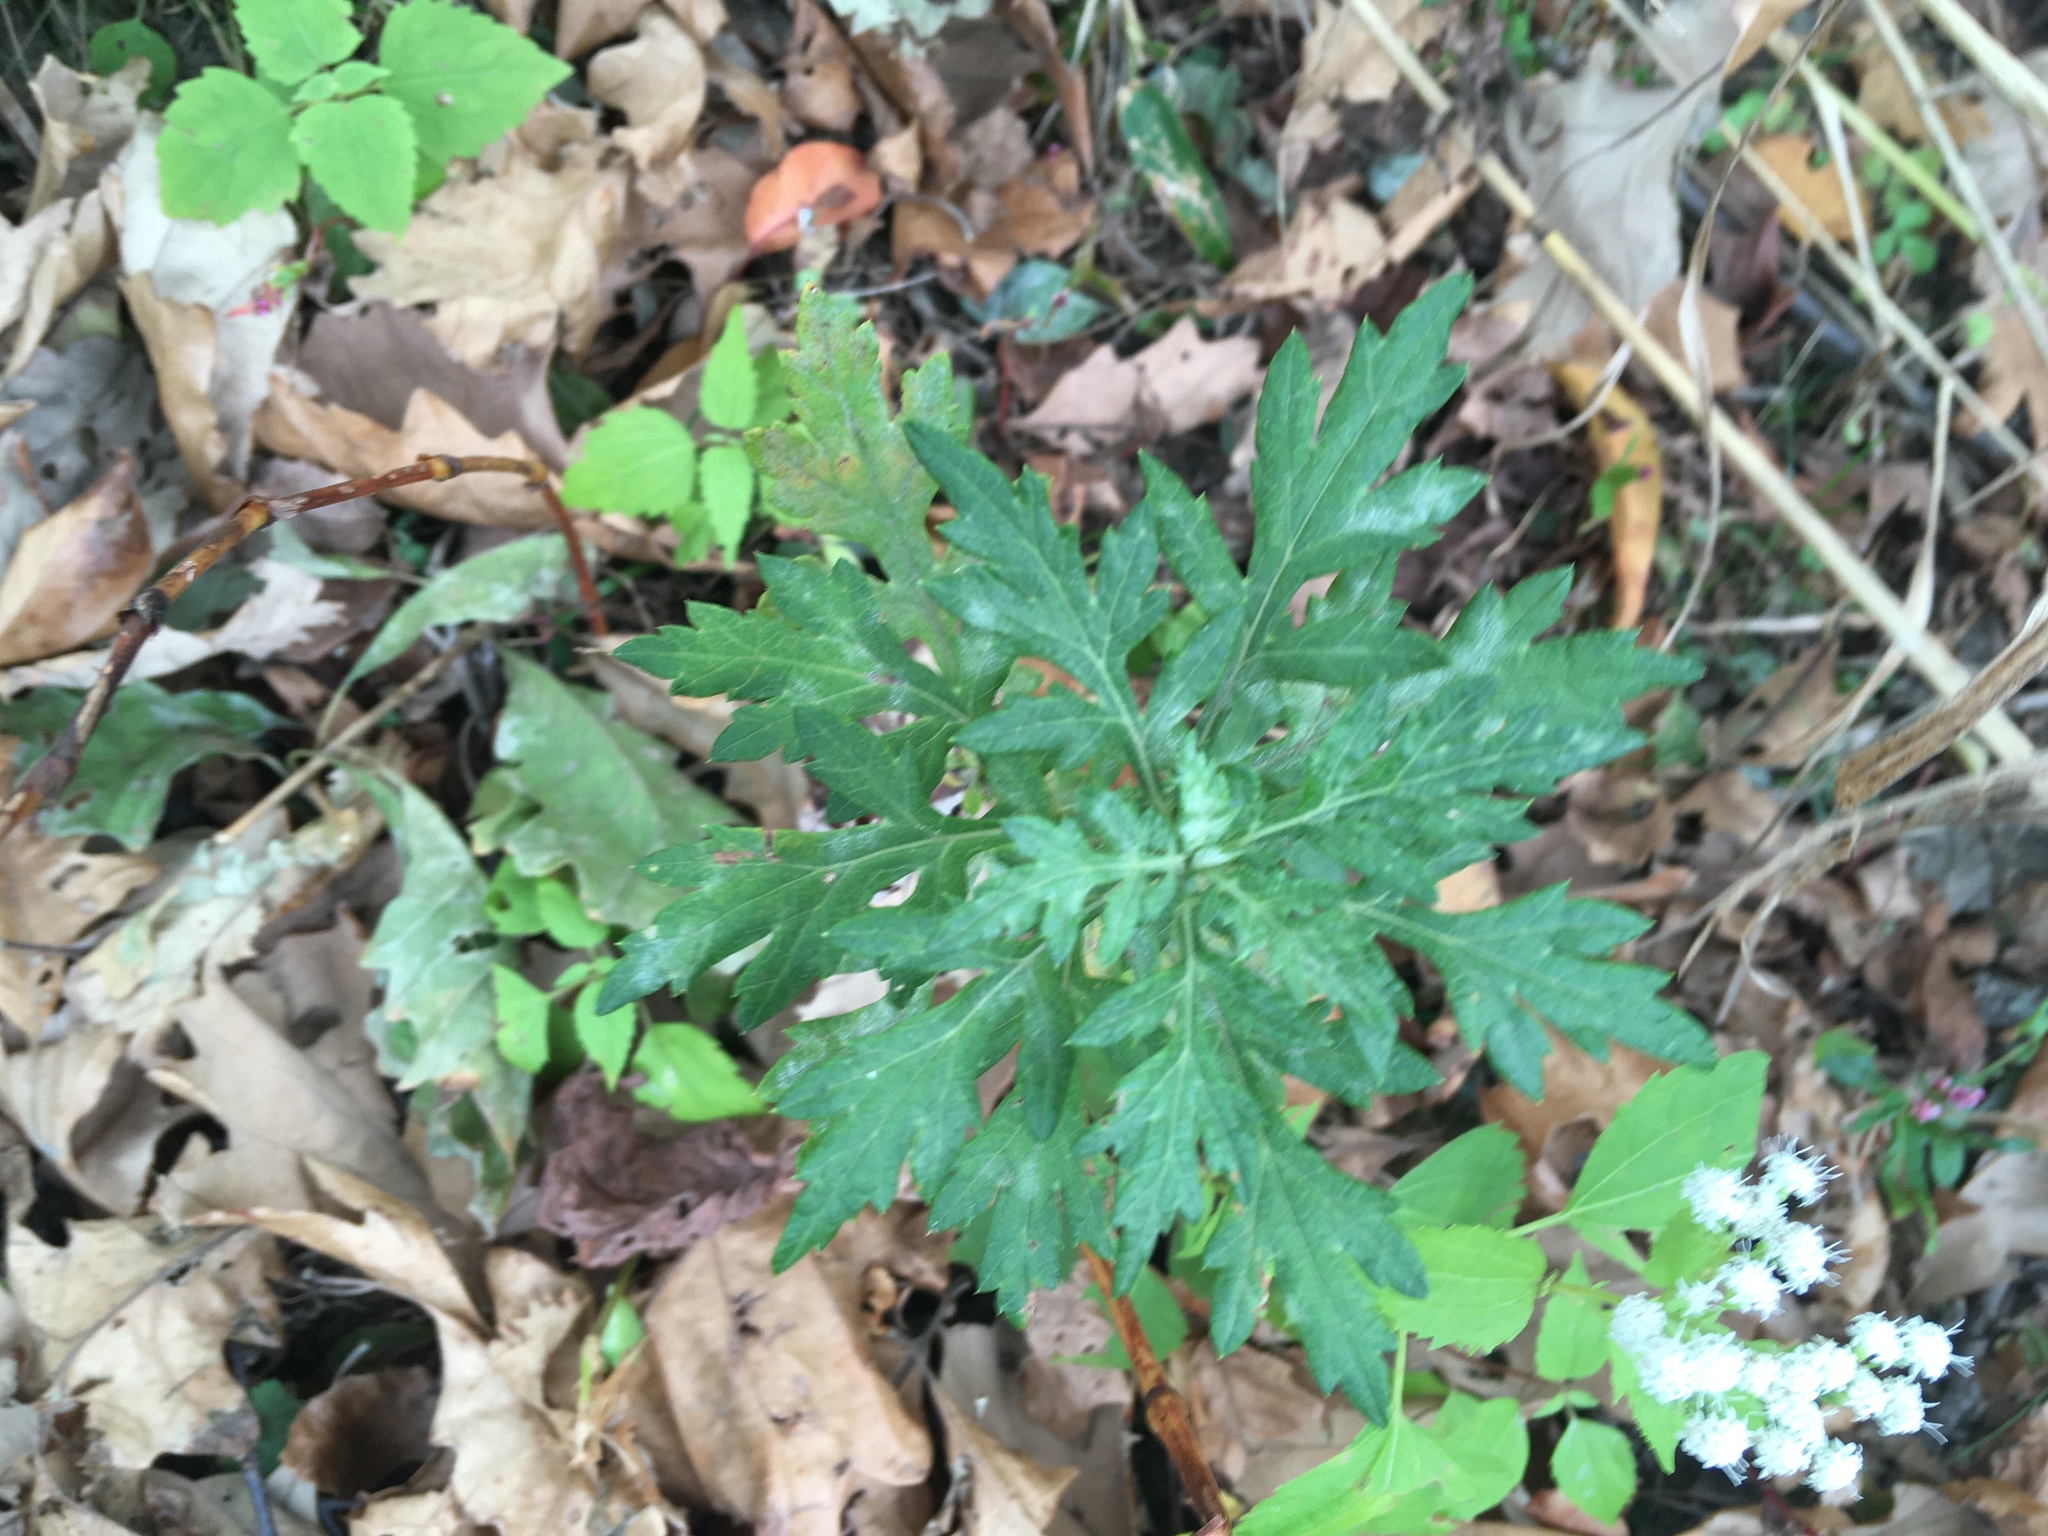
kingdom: Plantae
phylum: Tracheophyta
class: Magnoliopsida
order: Asterales
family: Asteraceae
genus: Artemisia
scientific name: Artemisia vulgaris
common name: Mugwort
